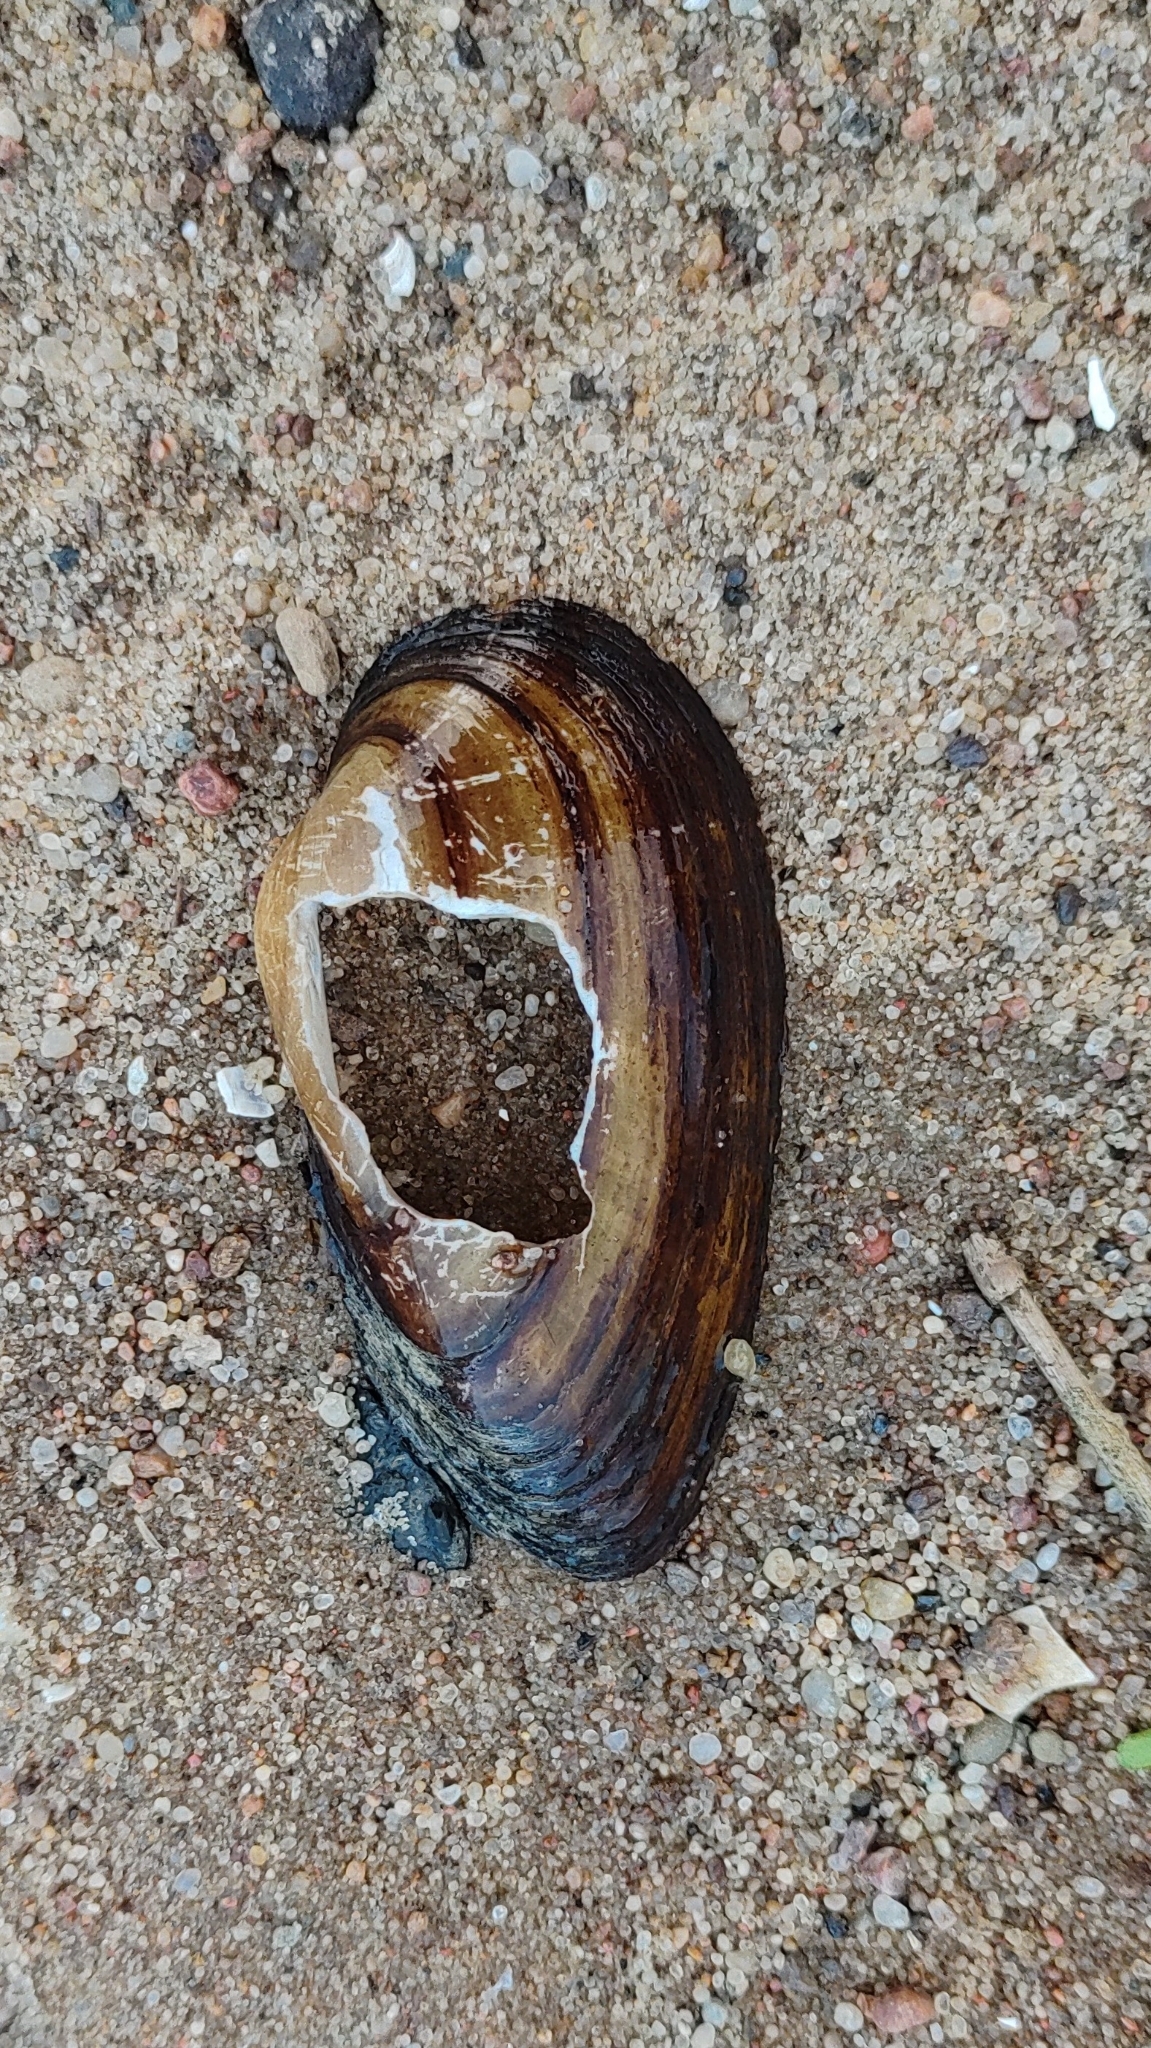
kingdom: Animalia
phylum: Mollusca
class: Bivalvia
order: Unionida
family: Unionidae
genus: Unio
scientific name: Unio tumidus
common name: Swollen river mussel
